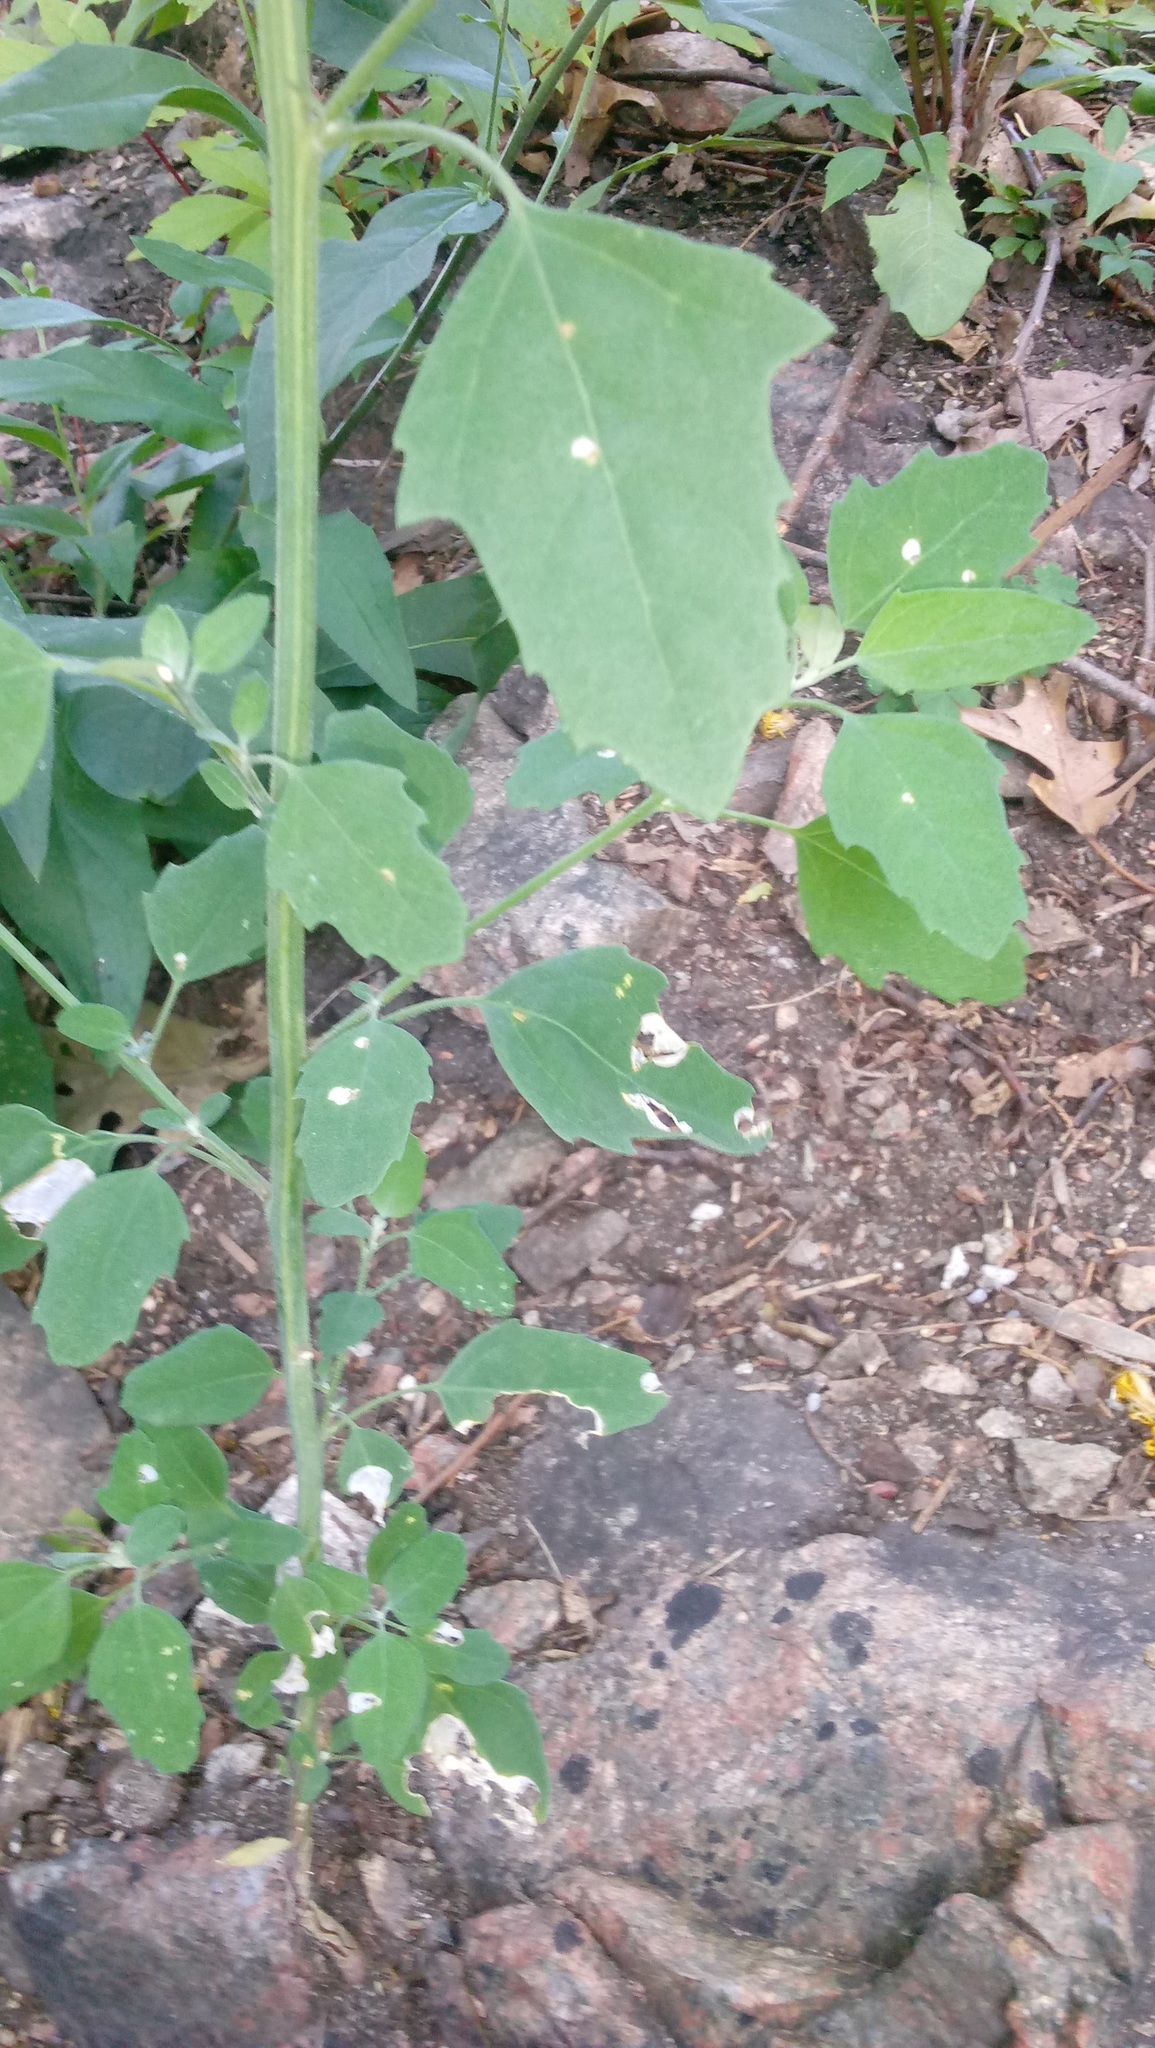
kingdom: Plantae
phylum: Tracheophyta
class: Magnoliopsida
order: Caryophyllales
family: Amaranthaceae
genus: Chenopodium
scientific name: Chenopodium album
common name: Fat-hen
